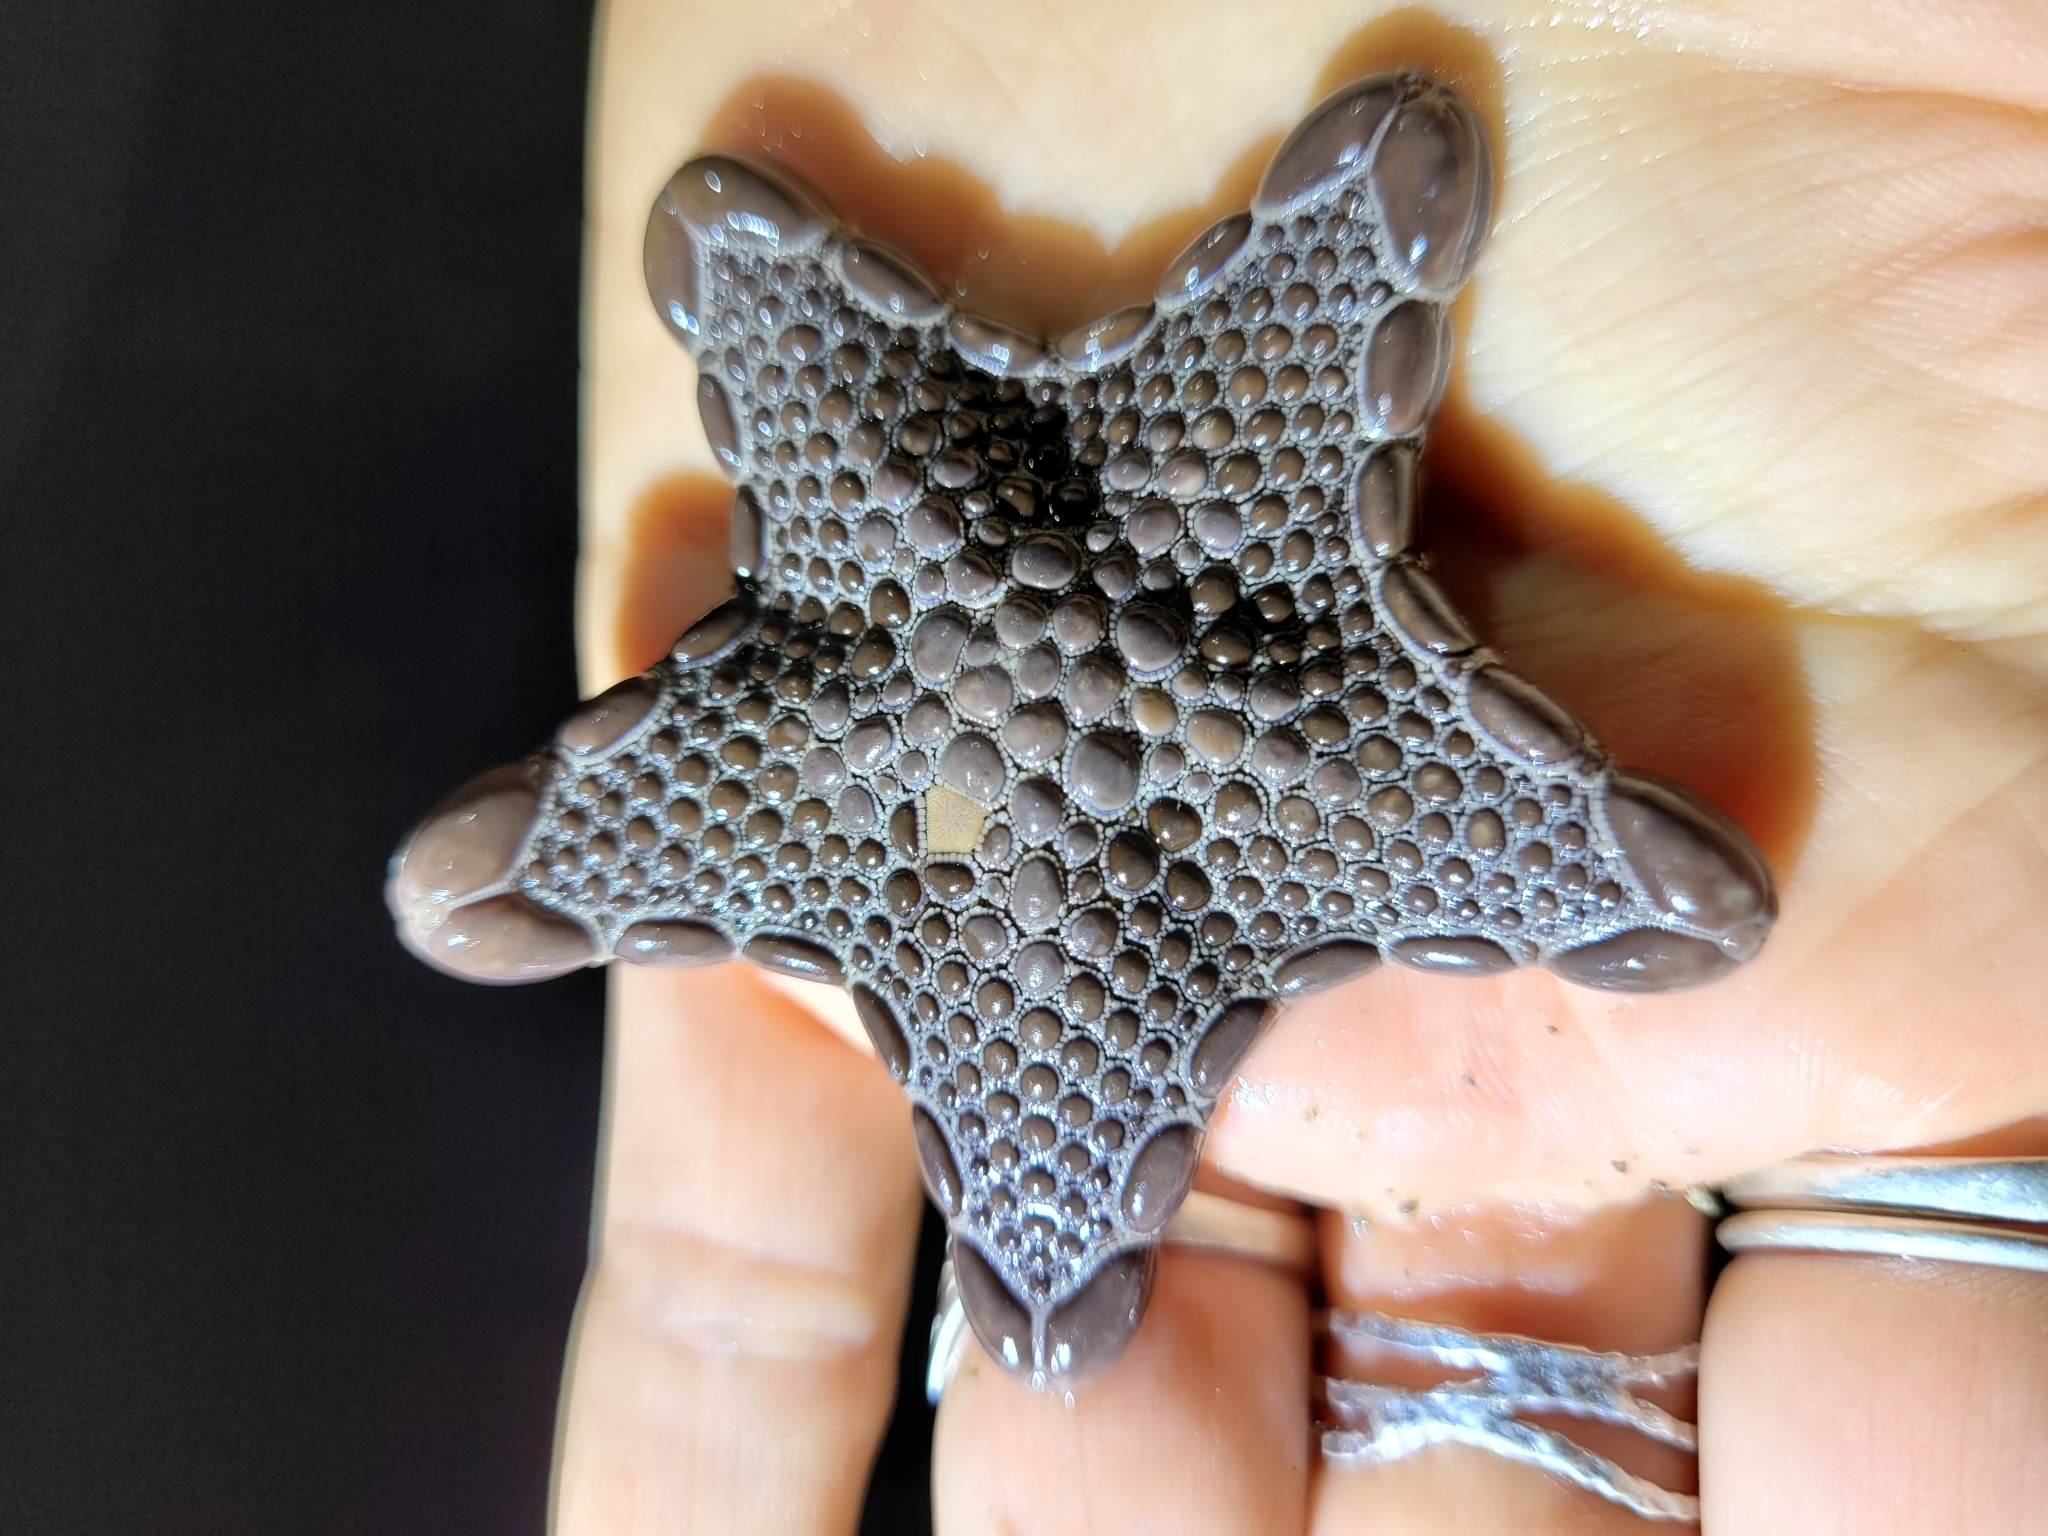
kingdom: Animalia
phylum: Echinodermata
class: Asteroidea
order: Valvatida
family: Goniasteridae
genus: Pentagonaster
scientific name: Pentagonaster pulchellus
